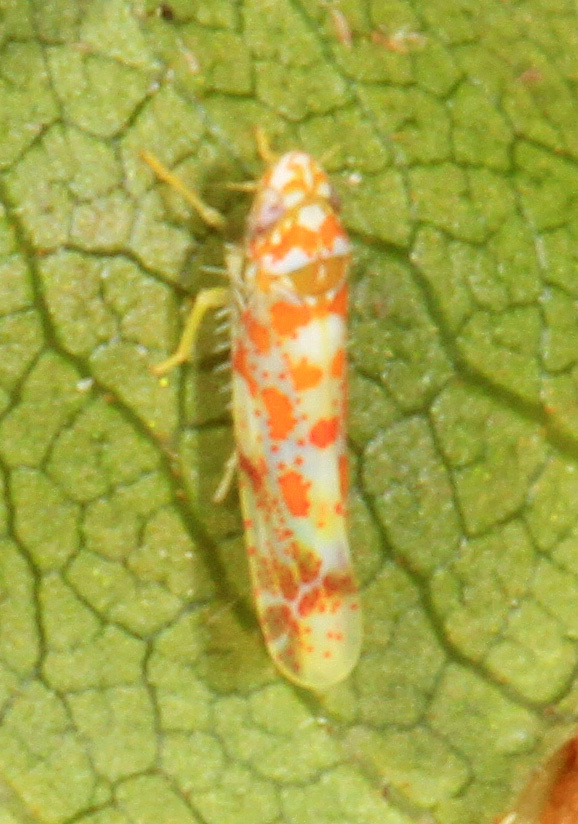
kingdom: Animalia
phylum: Arthropoda
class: Insecta
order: Hemiptera
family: Cicadellidae
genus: Dikrella
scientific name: Dikrella maculata
